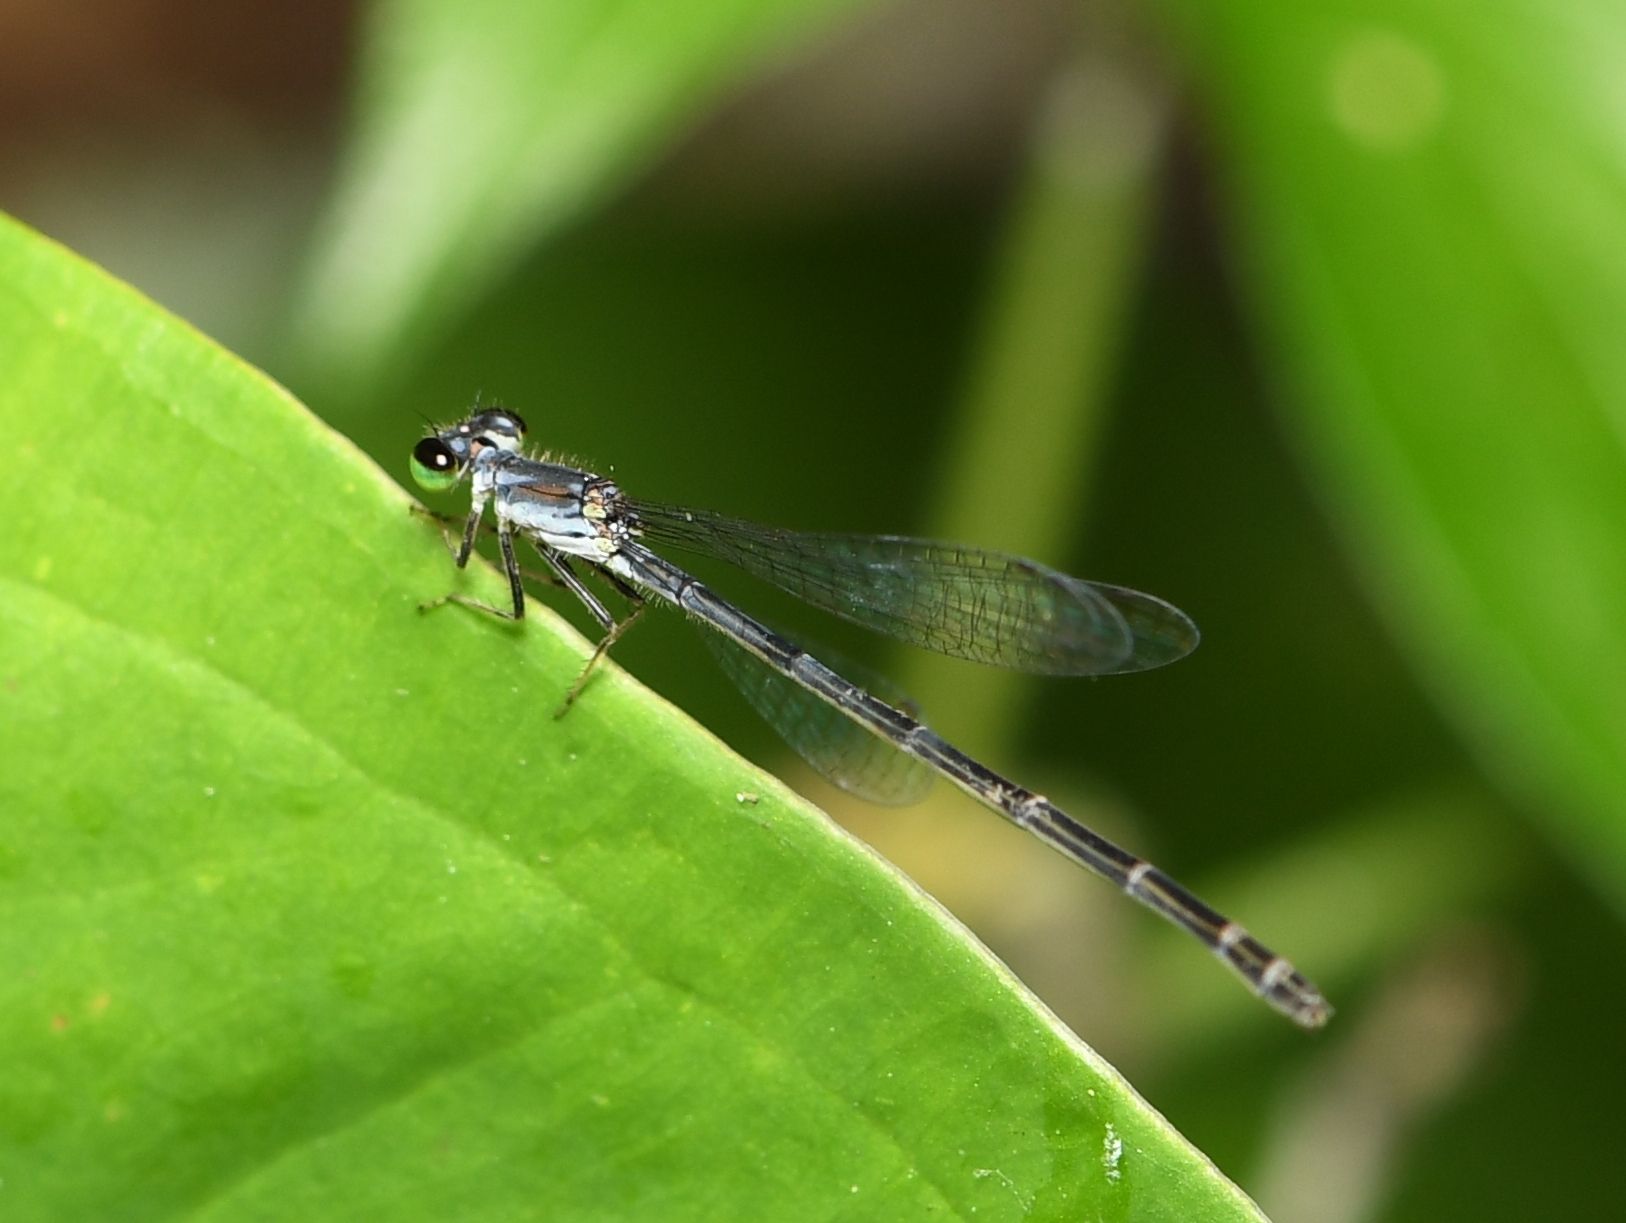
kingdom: Animalia
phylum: Arthropoda
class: Insecta
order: Odonata
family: Coenagrionidae
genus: Ischnura
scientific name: Ischnura posita
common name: Fragile forktail
